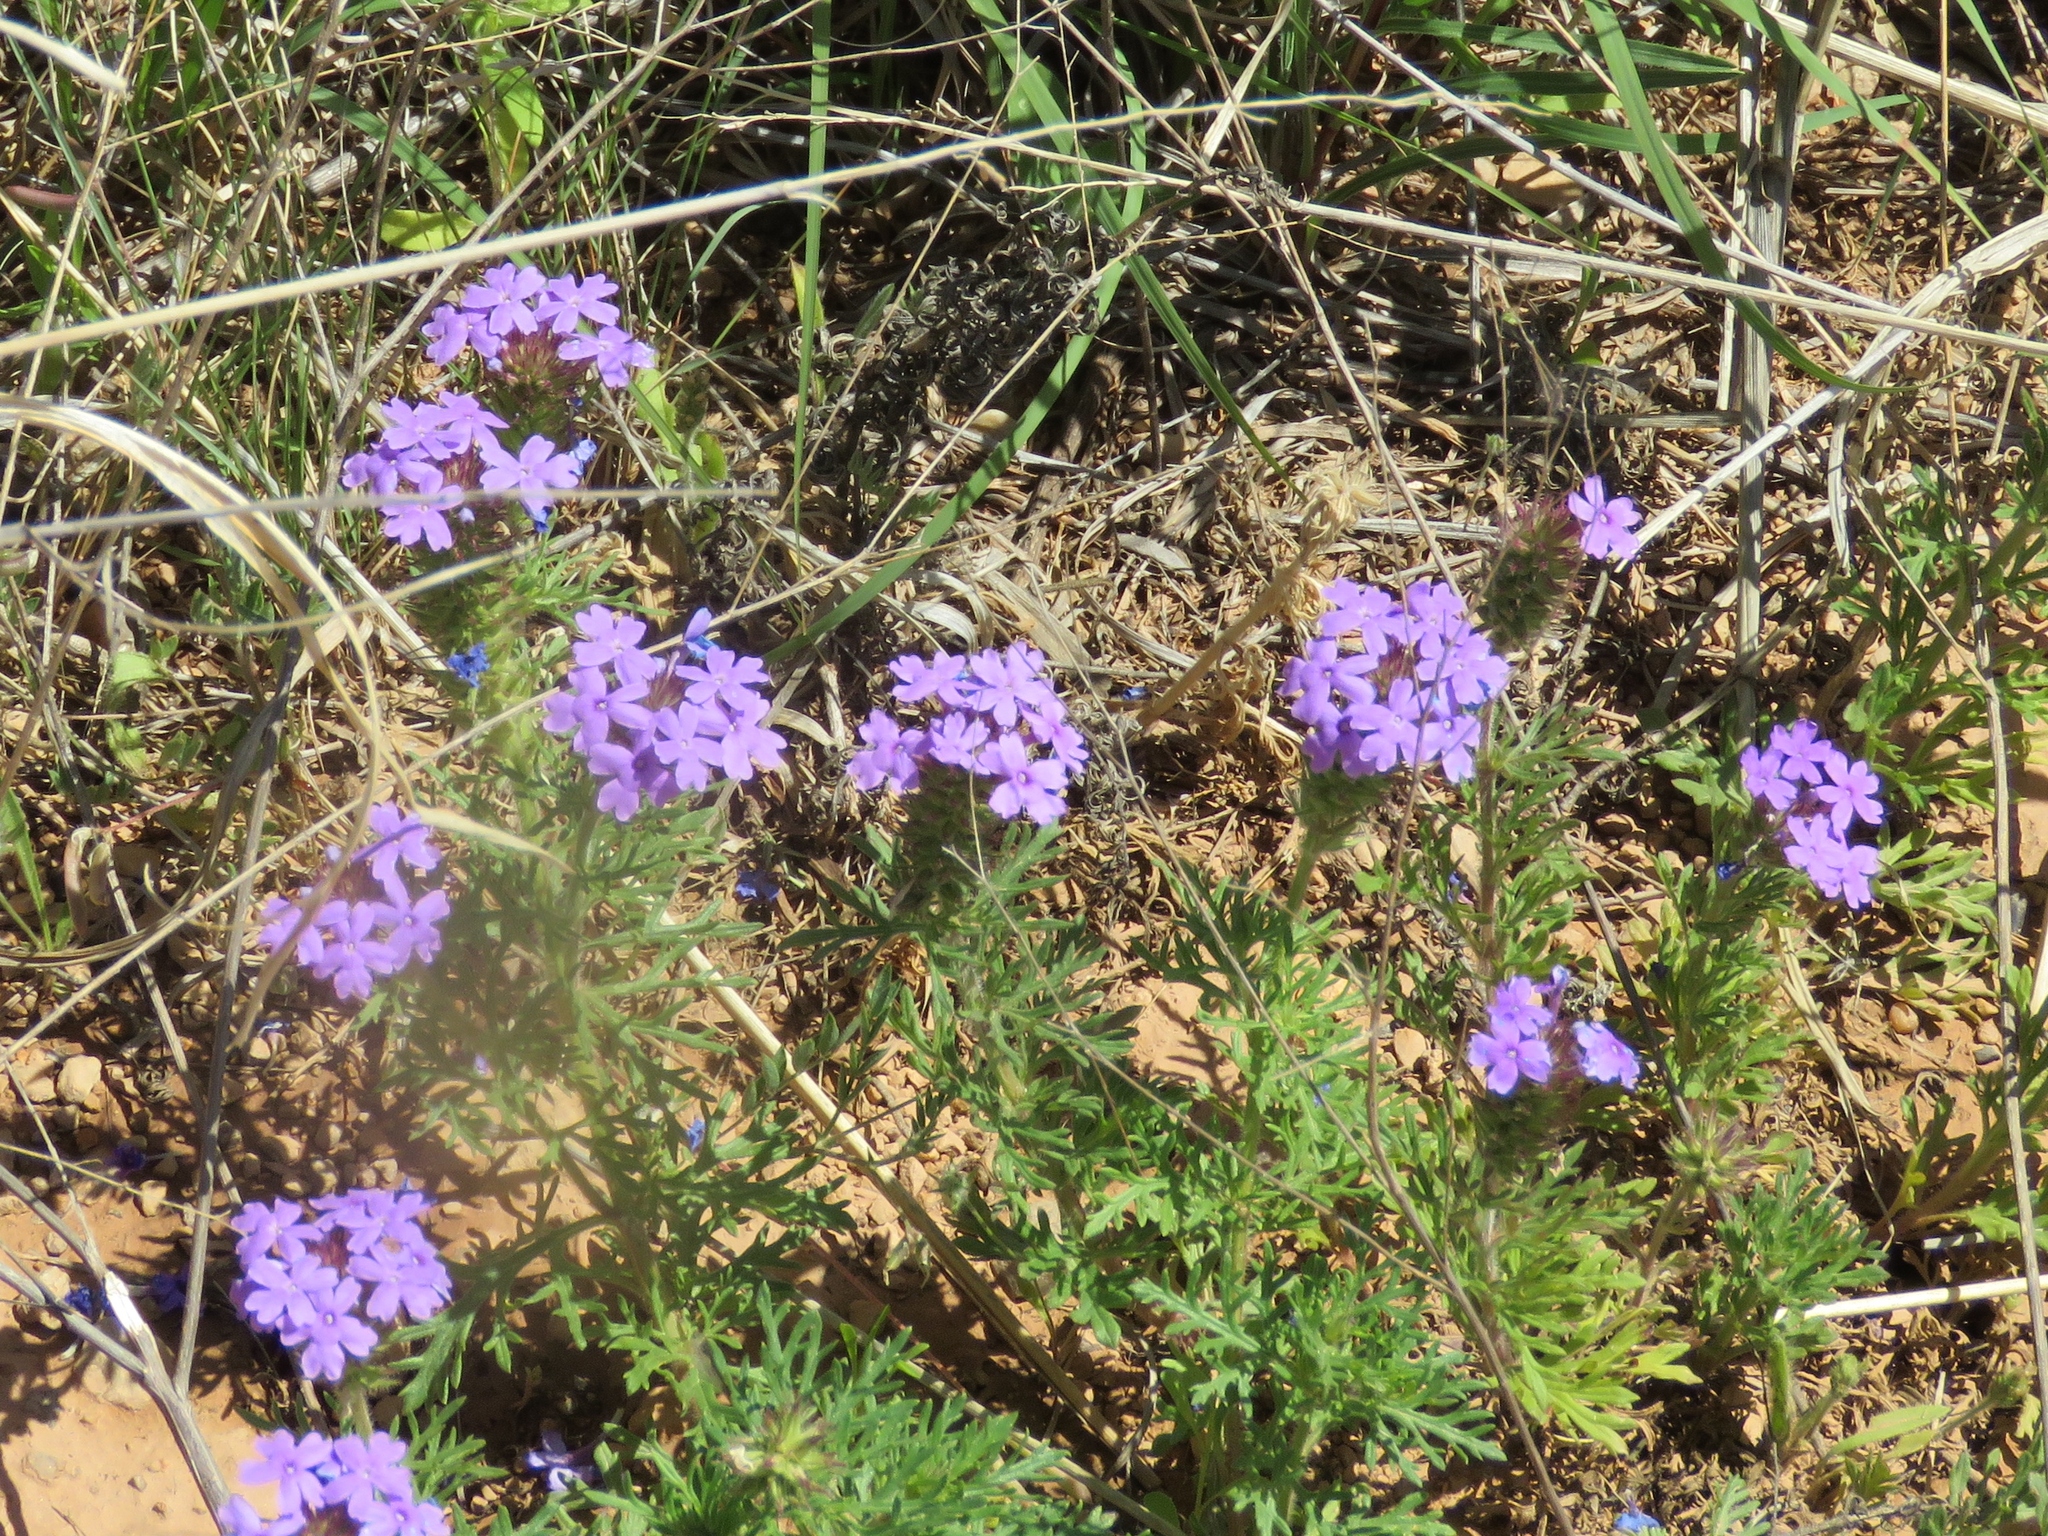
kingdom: Plantae
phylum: Tracheophyta
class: Magnoliopsida
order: Lamiales
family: Verbenaceae
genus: Verbena
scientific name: Verbena bipinnatifida
